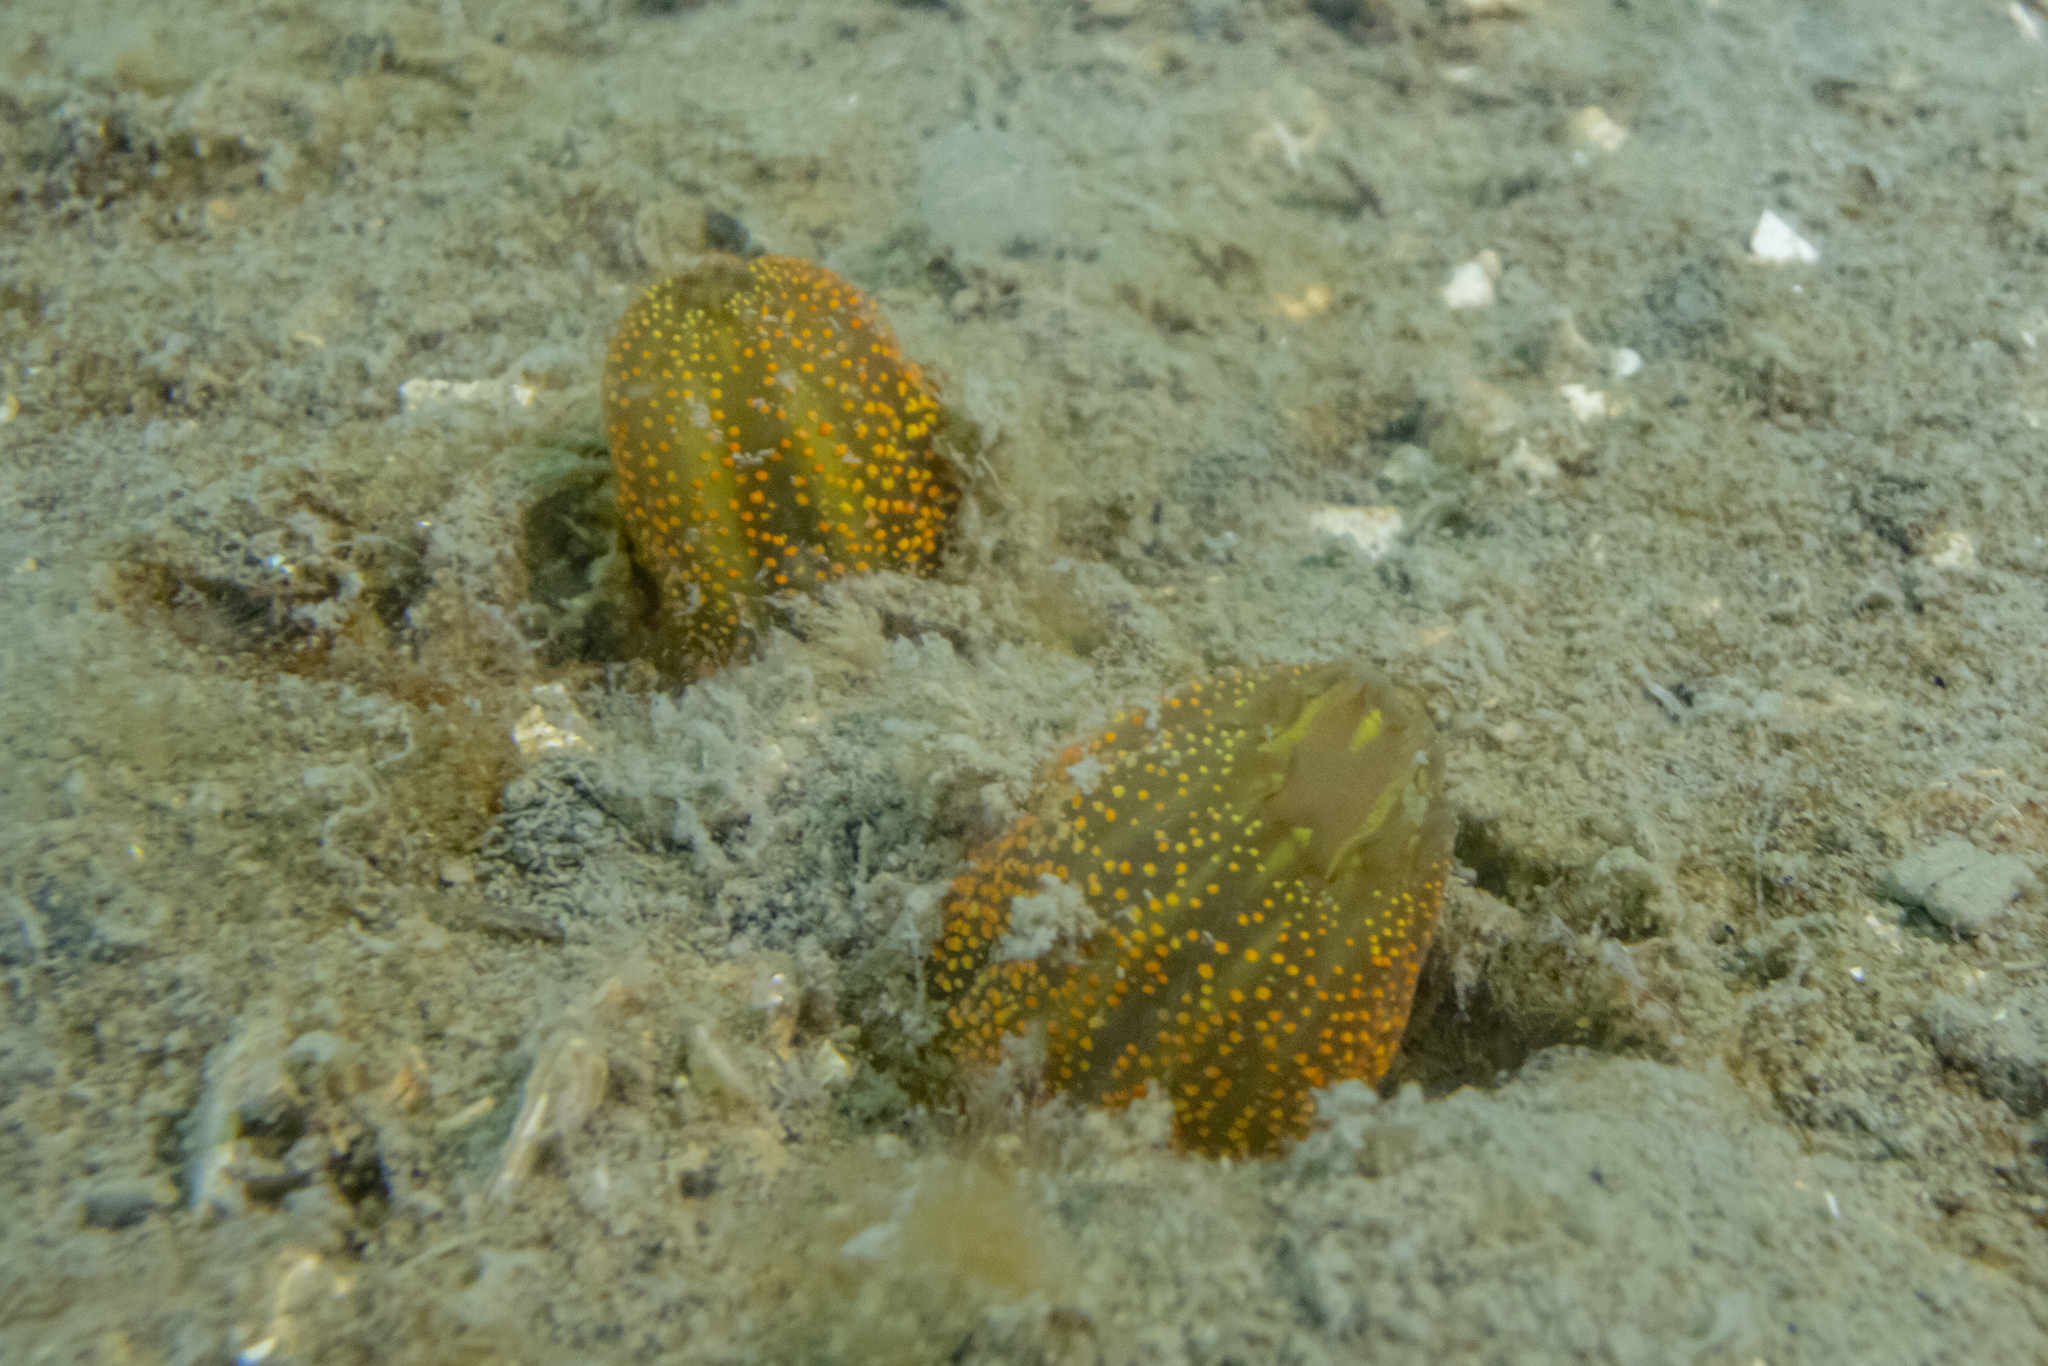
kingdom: Animalia
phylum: Chordata
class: Ascidiacea
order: Phlebobranchia
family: Corellidae
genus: Corella
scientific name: Corella
